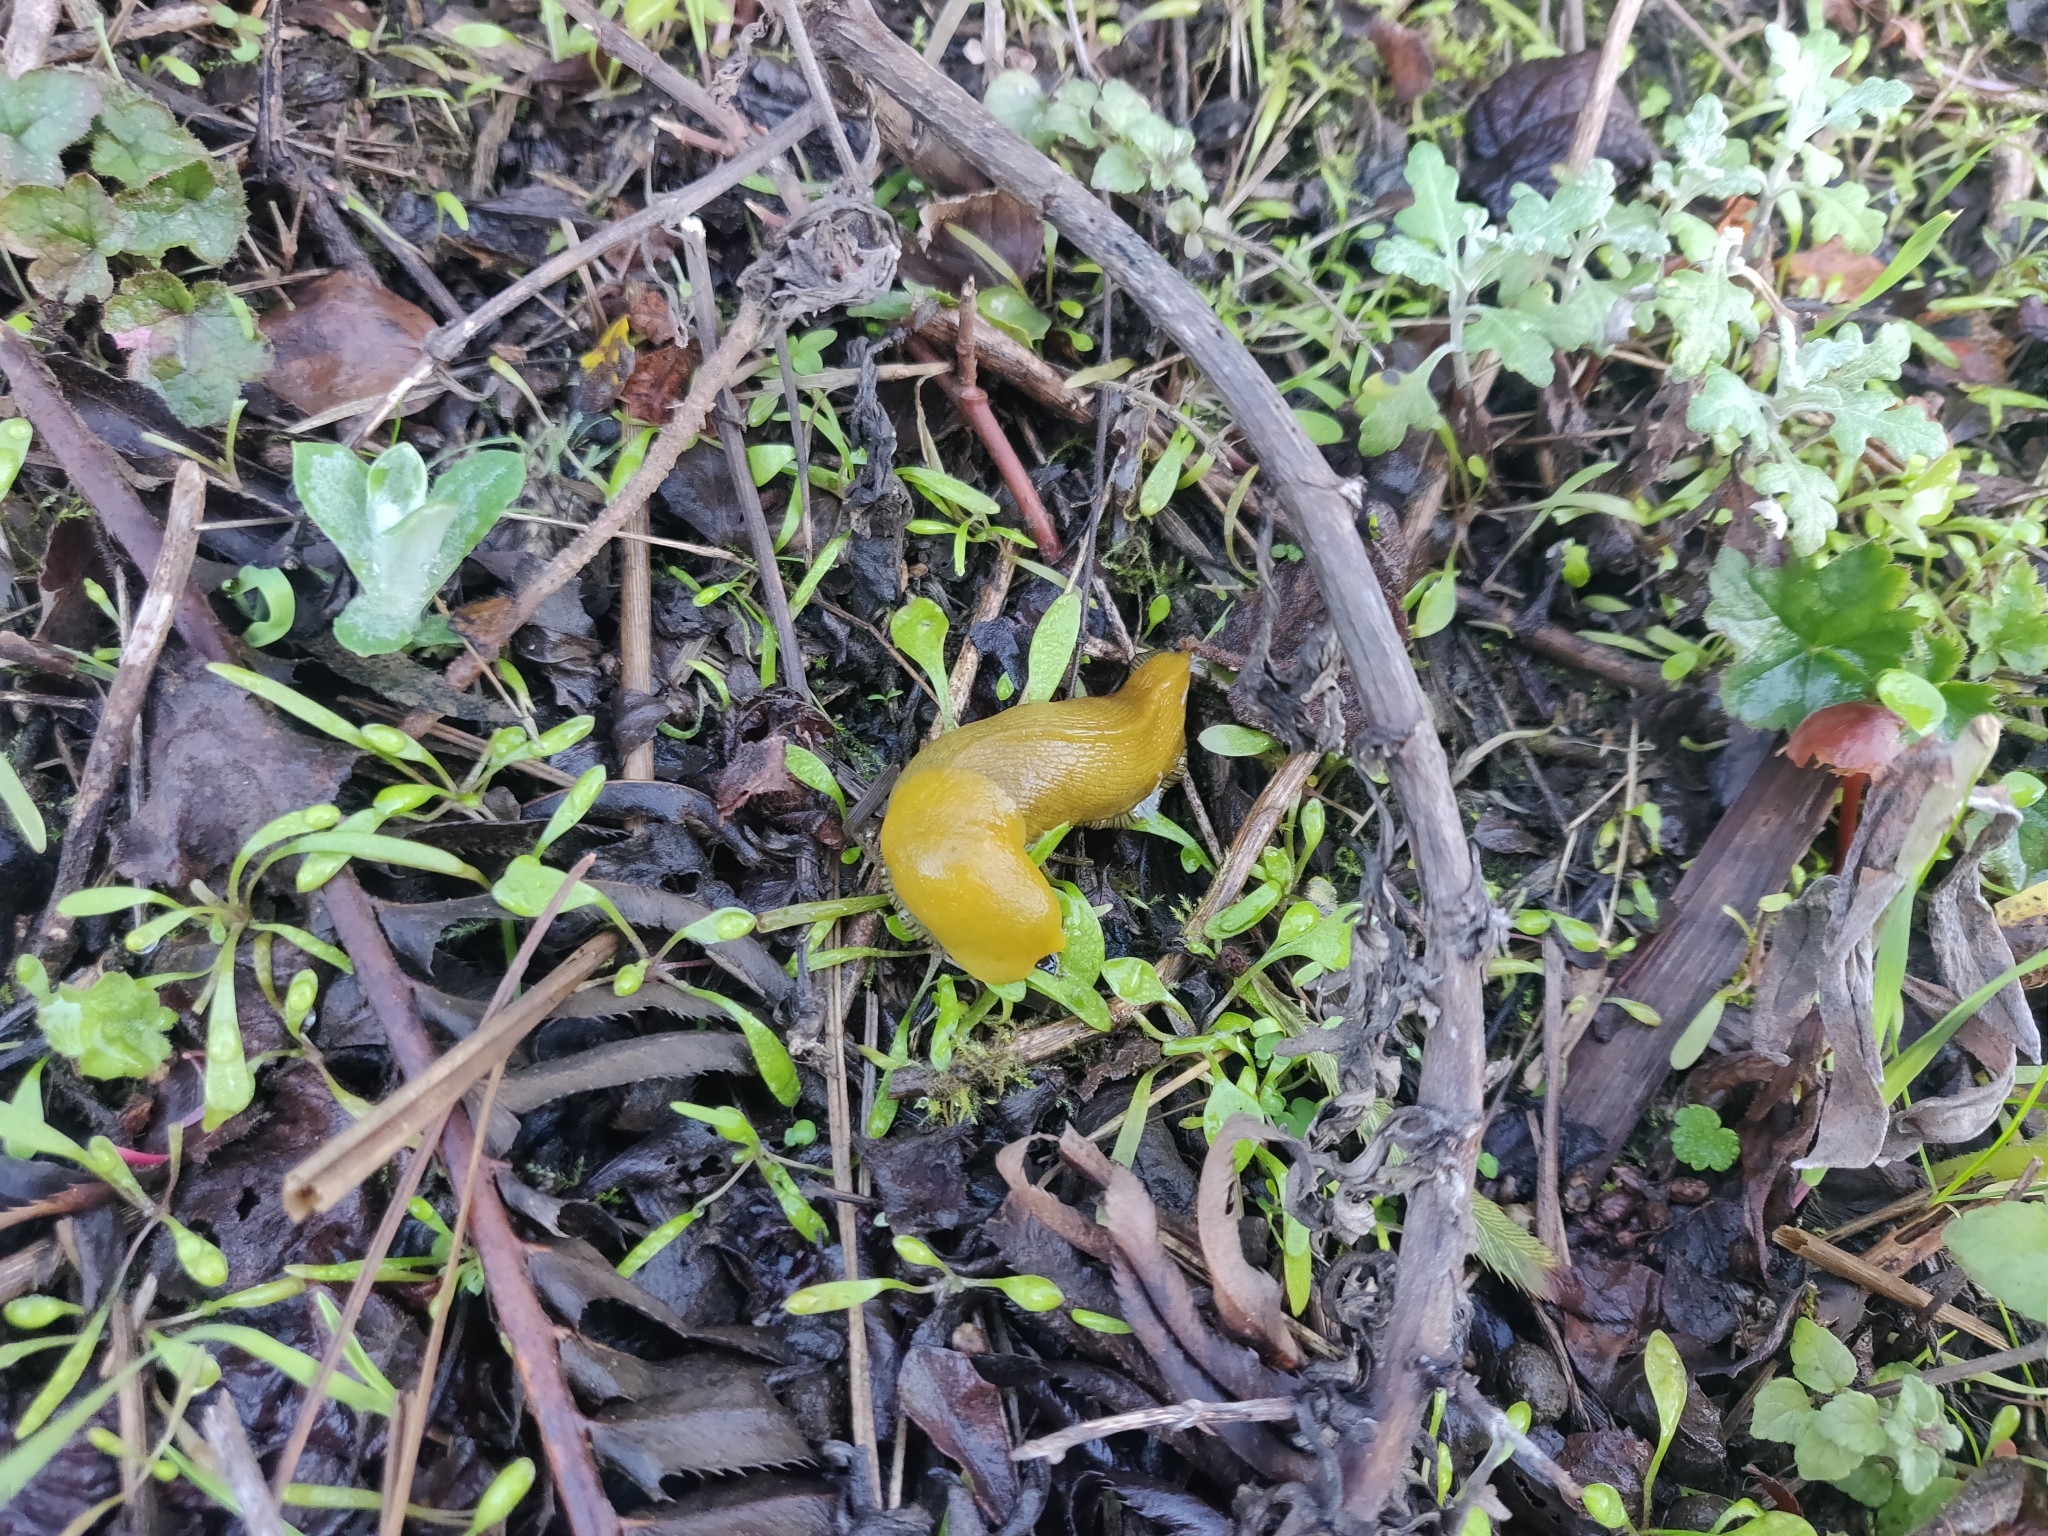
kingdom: Animalia
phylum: Mollusca
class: Gastropoda
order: Stylommatophora
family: Ariolimacidae
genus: Ariolimax
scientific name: Ariolimax brachyphallus
